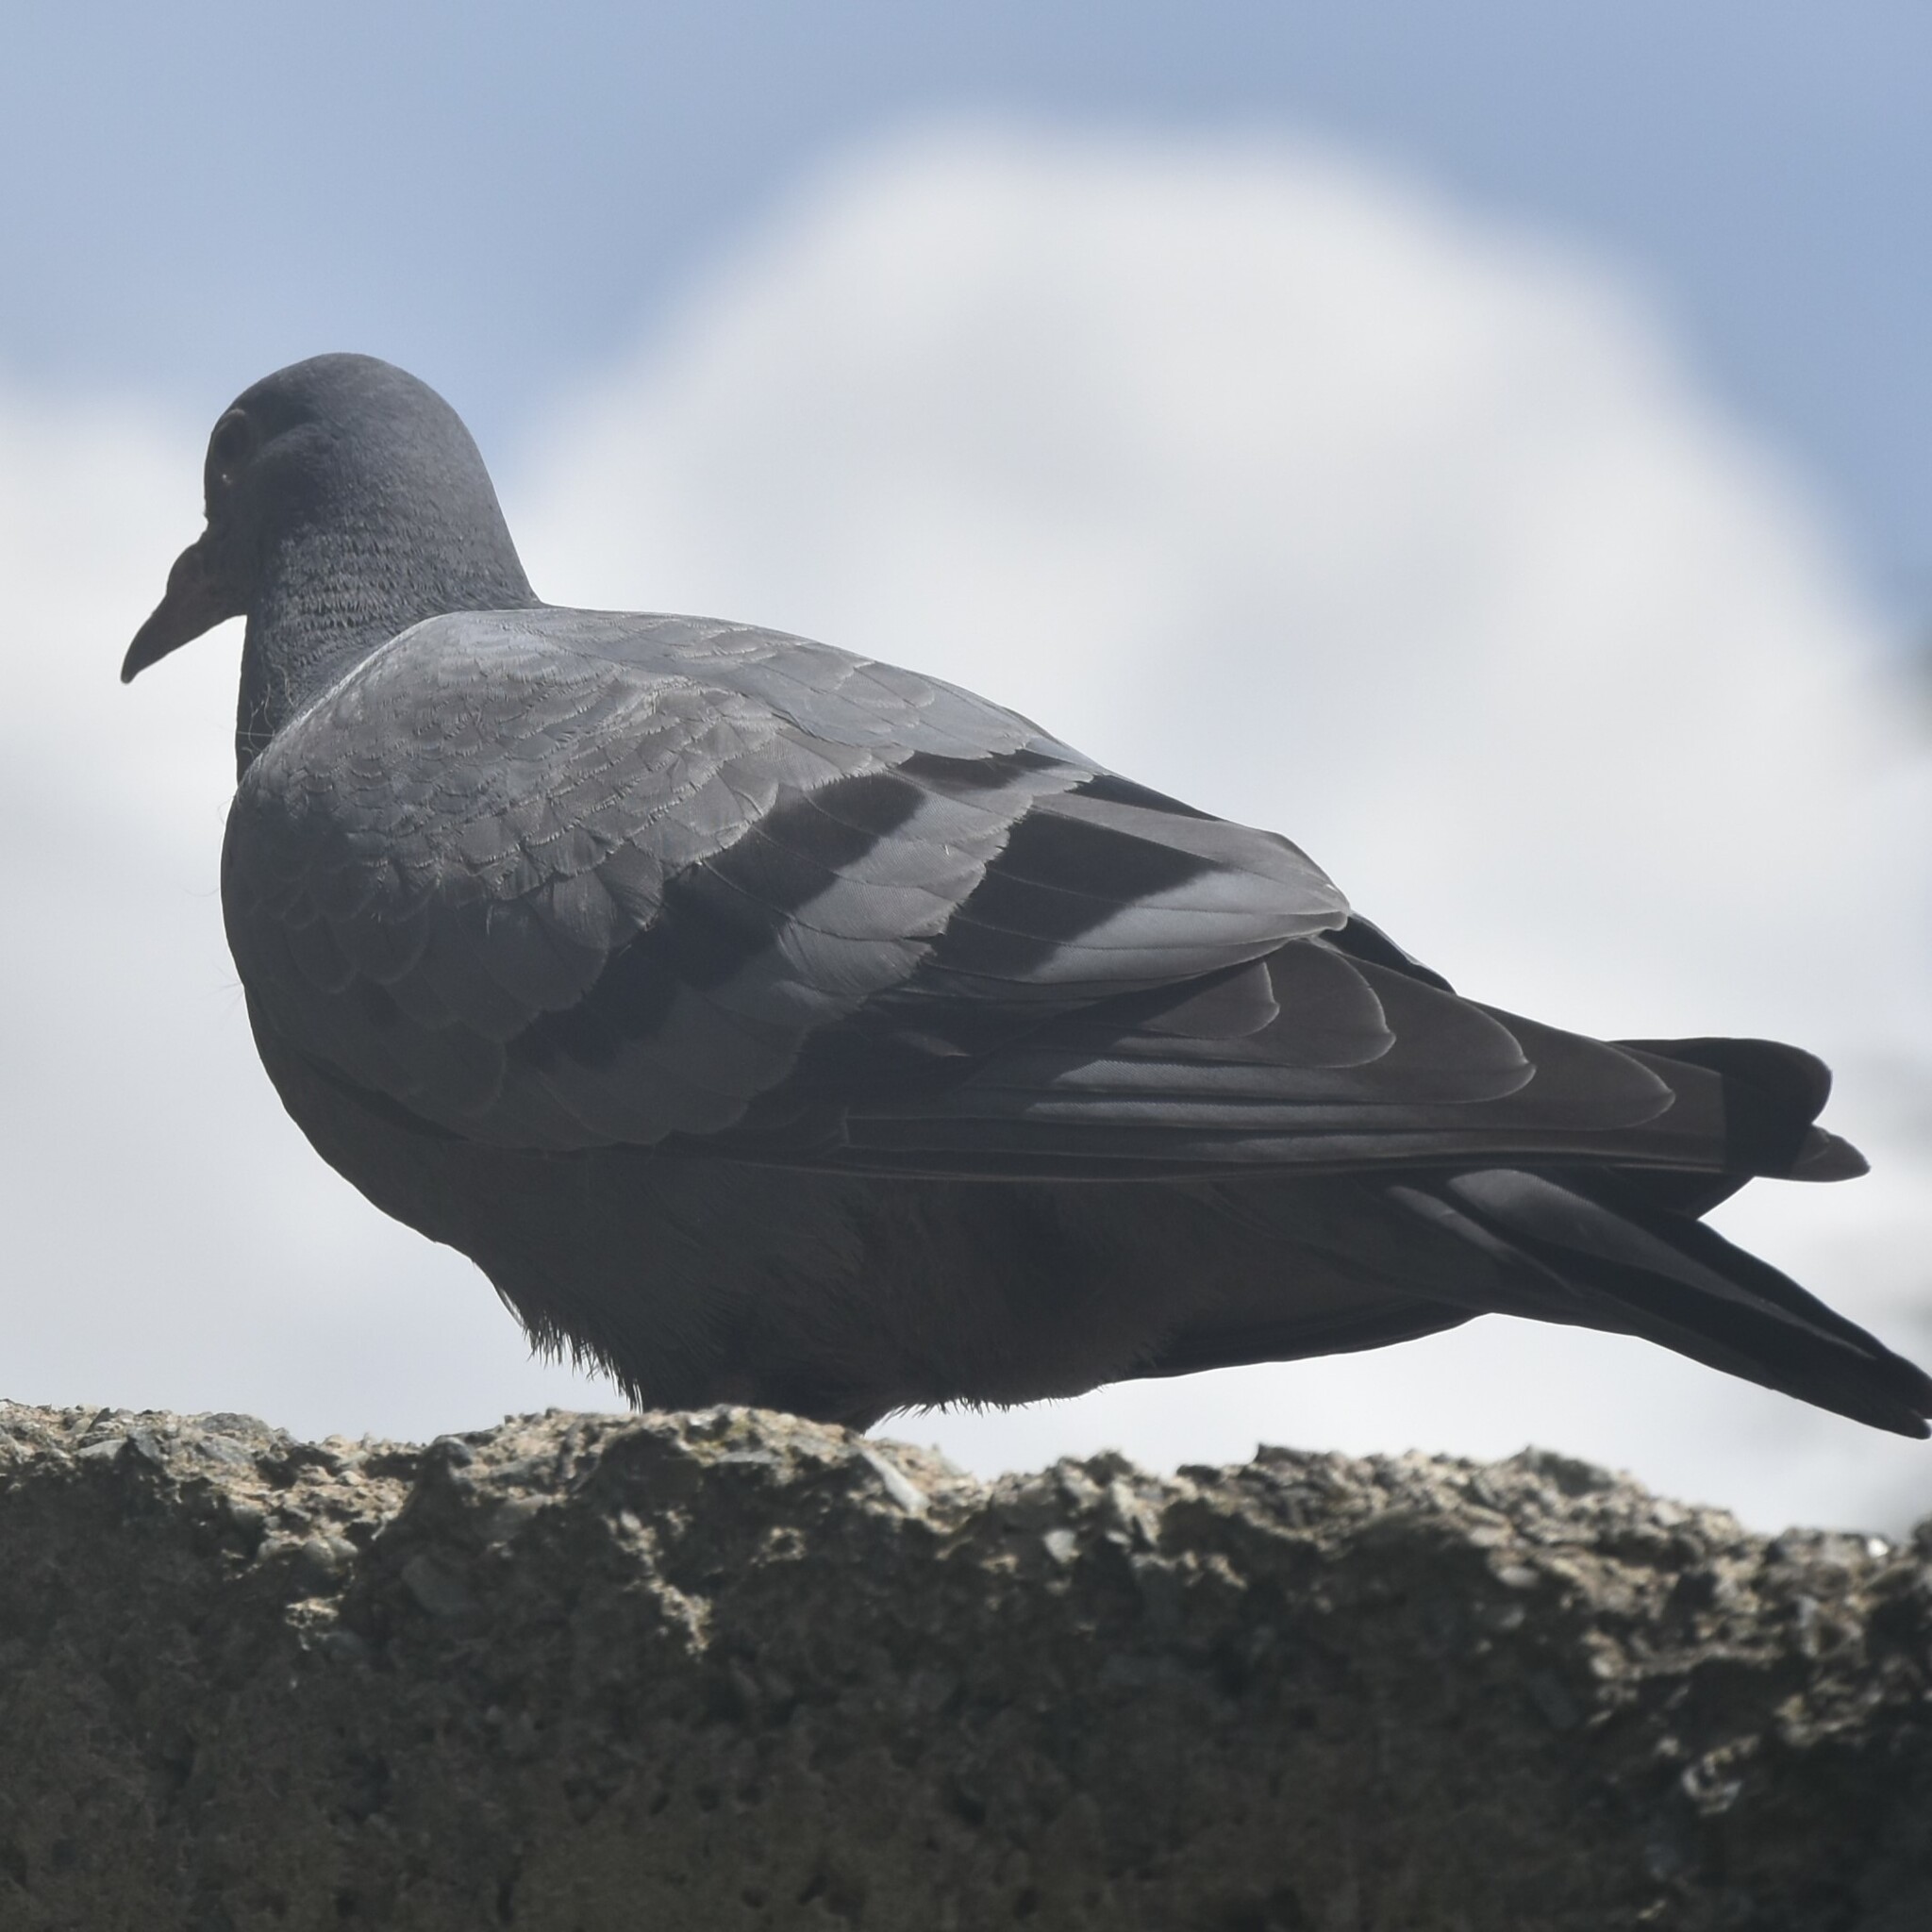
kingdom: Animalia
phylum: Chordata
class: Aves
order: Columbiformes
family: Columbidae
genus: Columba
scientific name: Columba livia
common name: Rock pigeon
